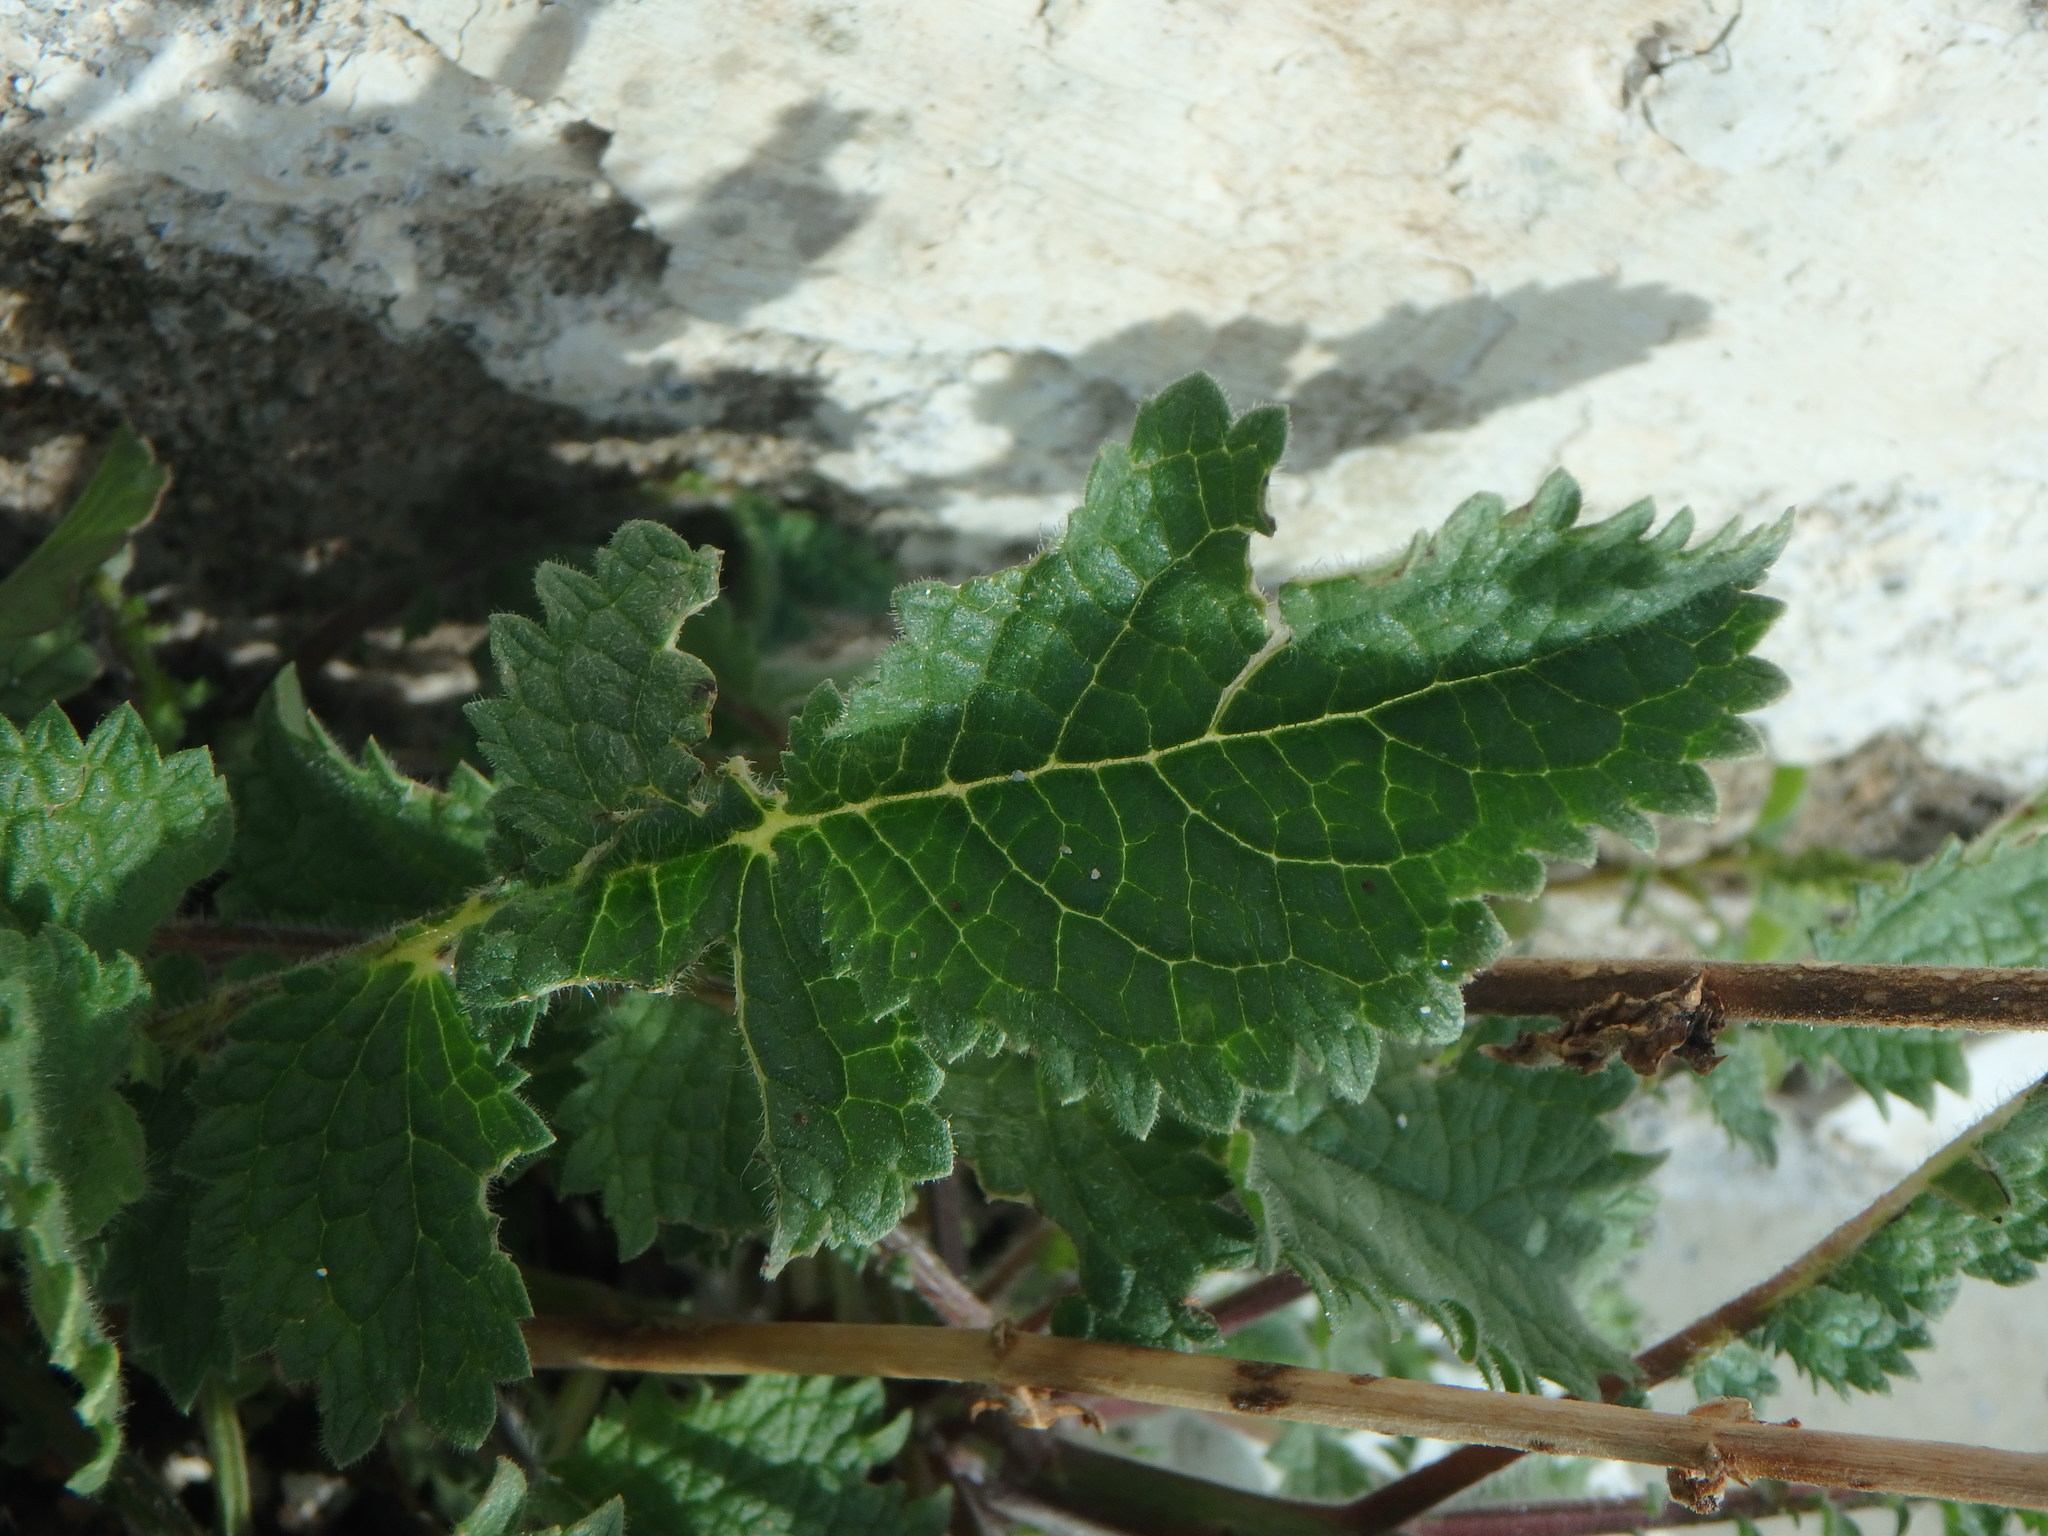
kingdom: Plantae
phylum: Tracheophyta
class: Magnoliopsida
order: Lamiales
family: Scrophulariaceae
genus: Verbascum
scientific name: Verbascum levanticum
